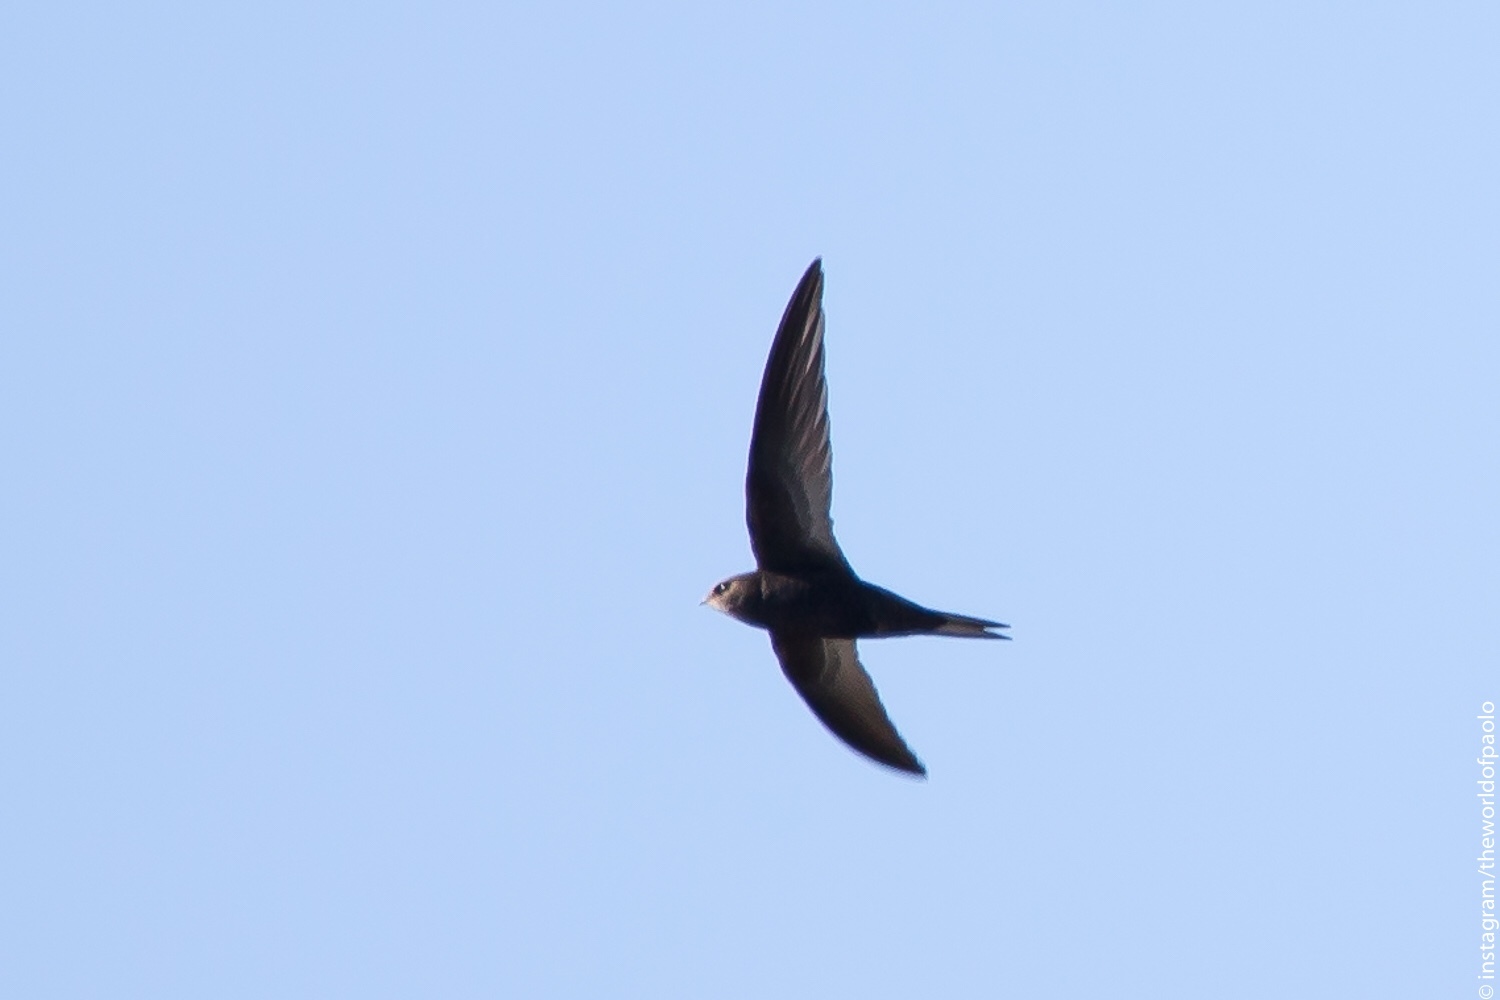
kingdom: Animalia
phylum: Chordata
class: Aves
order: Apodiformes
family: Apodidae
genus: Apus
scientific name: Apus apus
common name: Common swift
